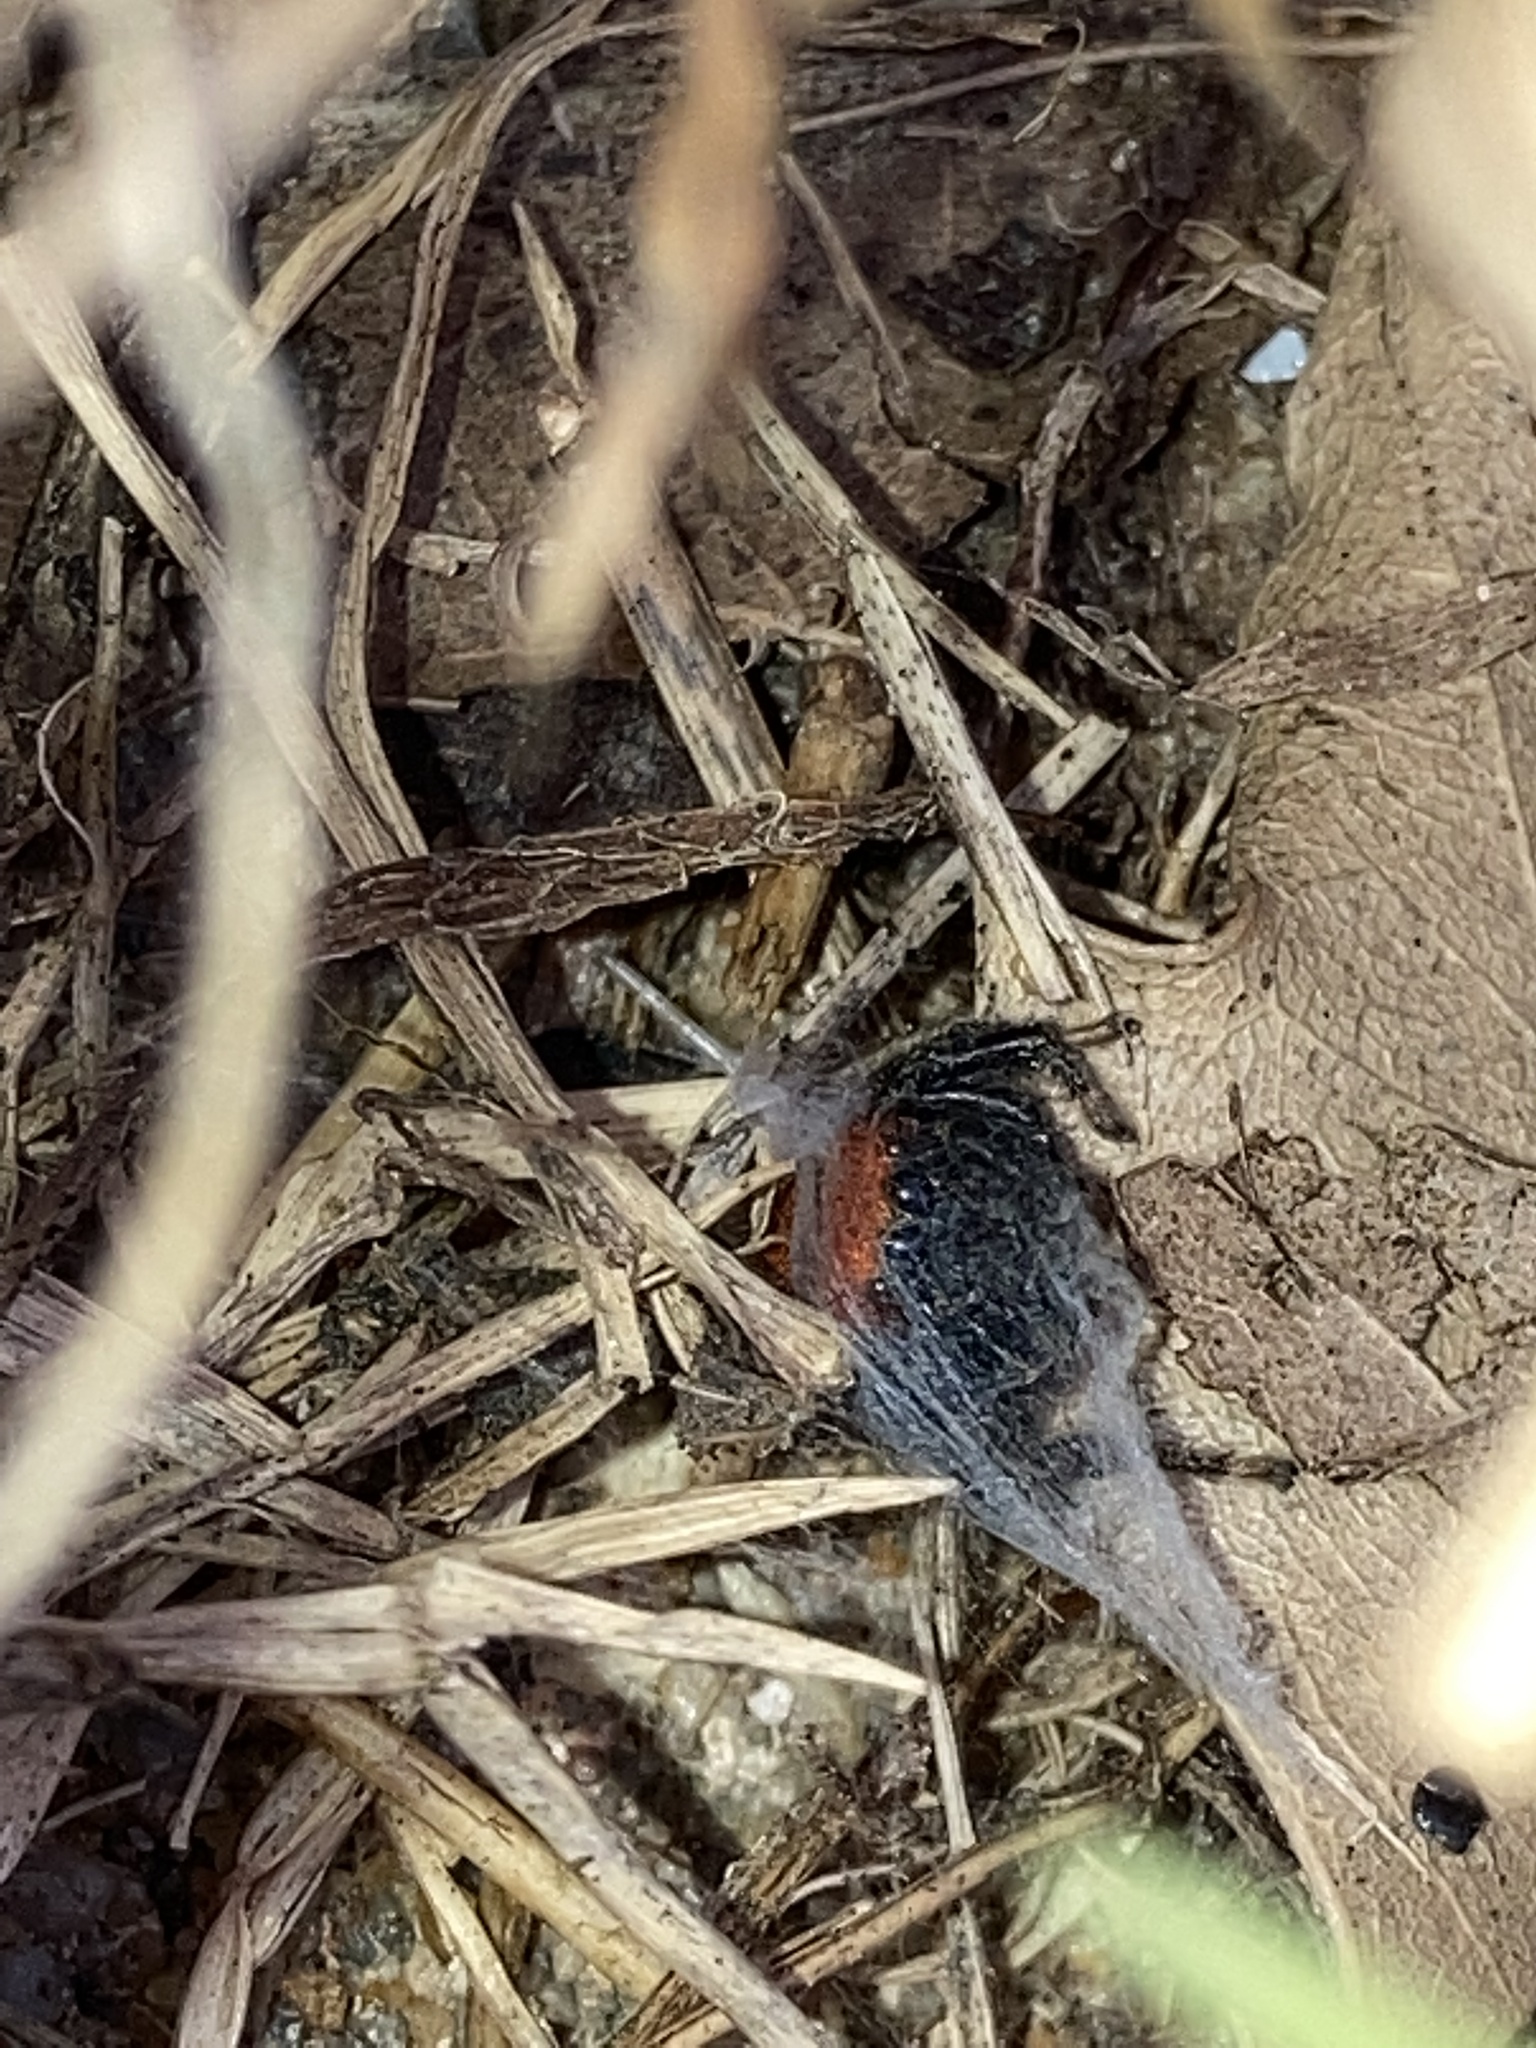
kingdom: Animalia
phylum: Arthropoda
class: Arachnida
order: Araneae
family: Salticidae
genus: Phidippus
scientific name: Phidippus cardinalis
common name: Cardinal jumper
